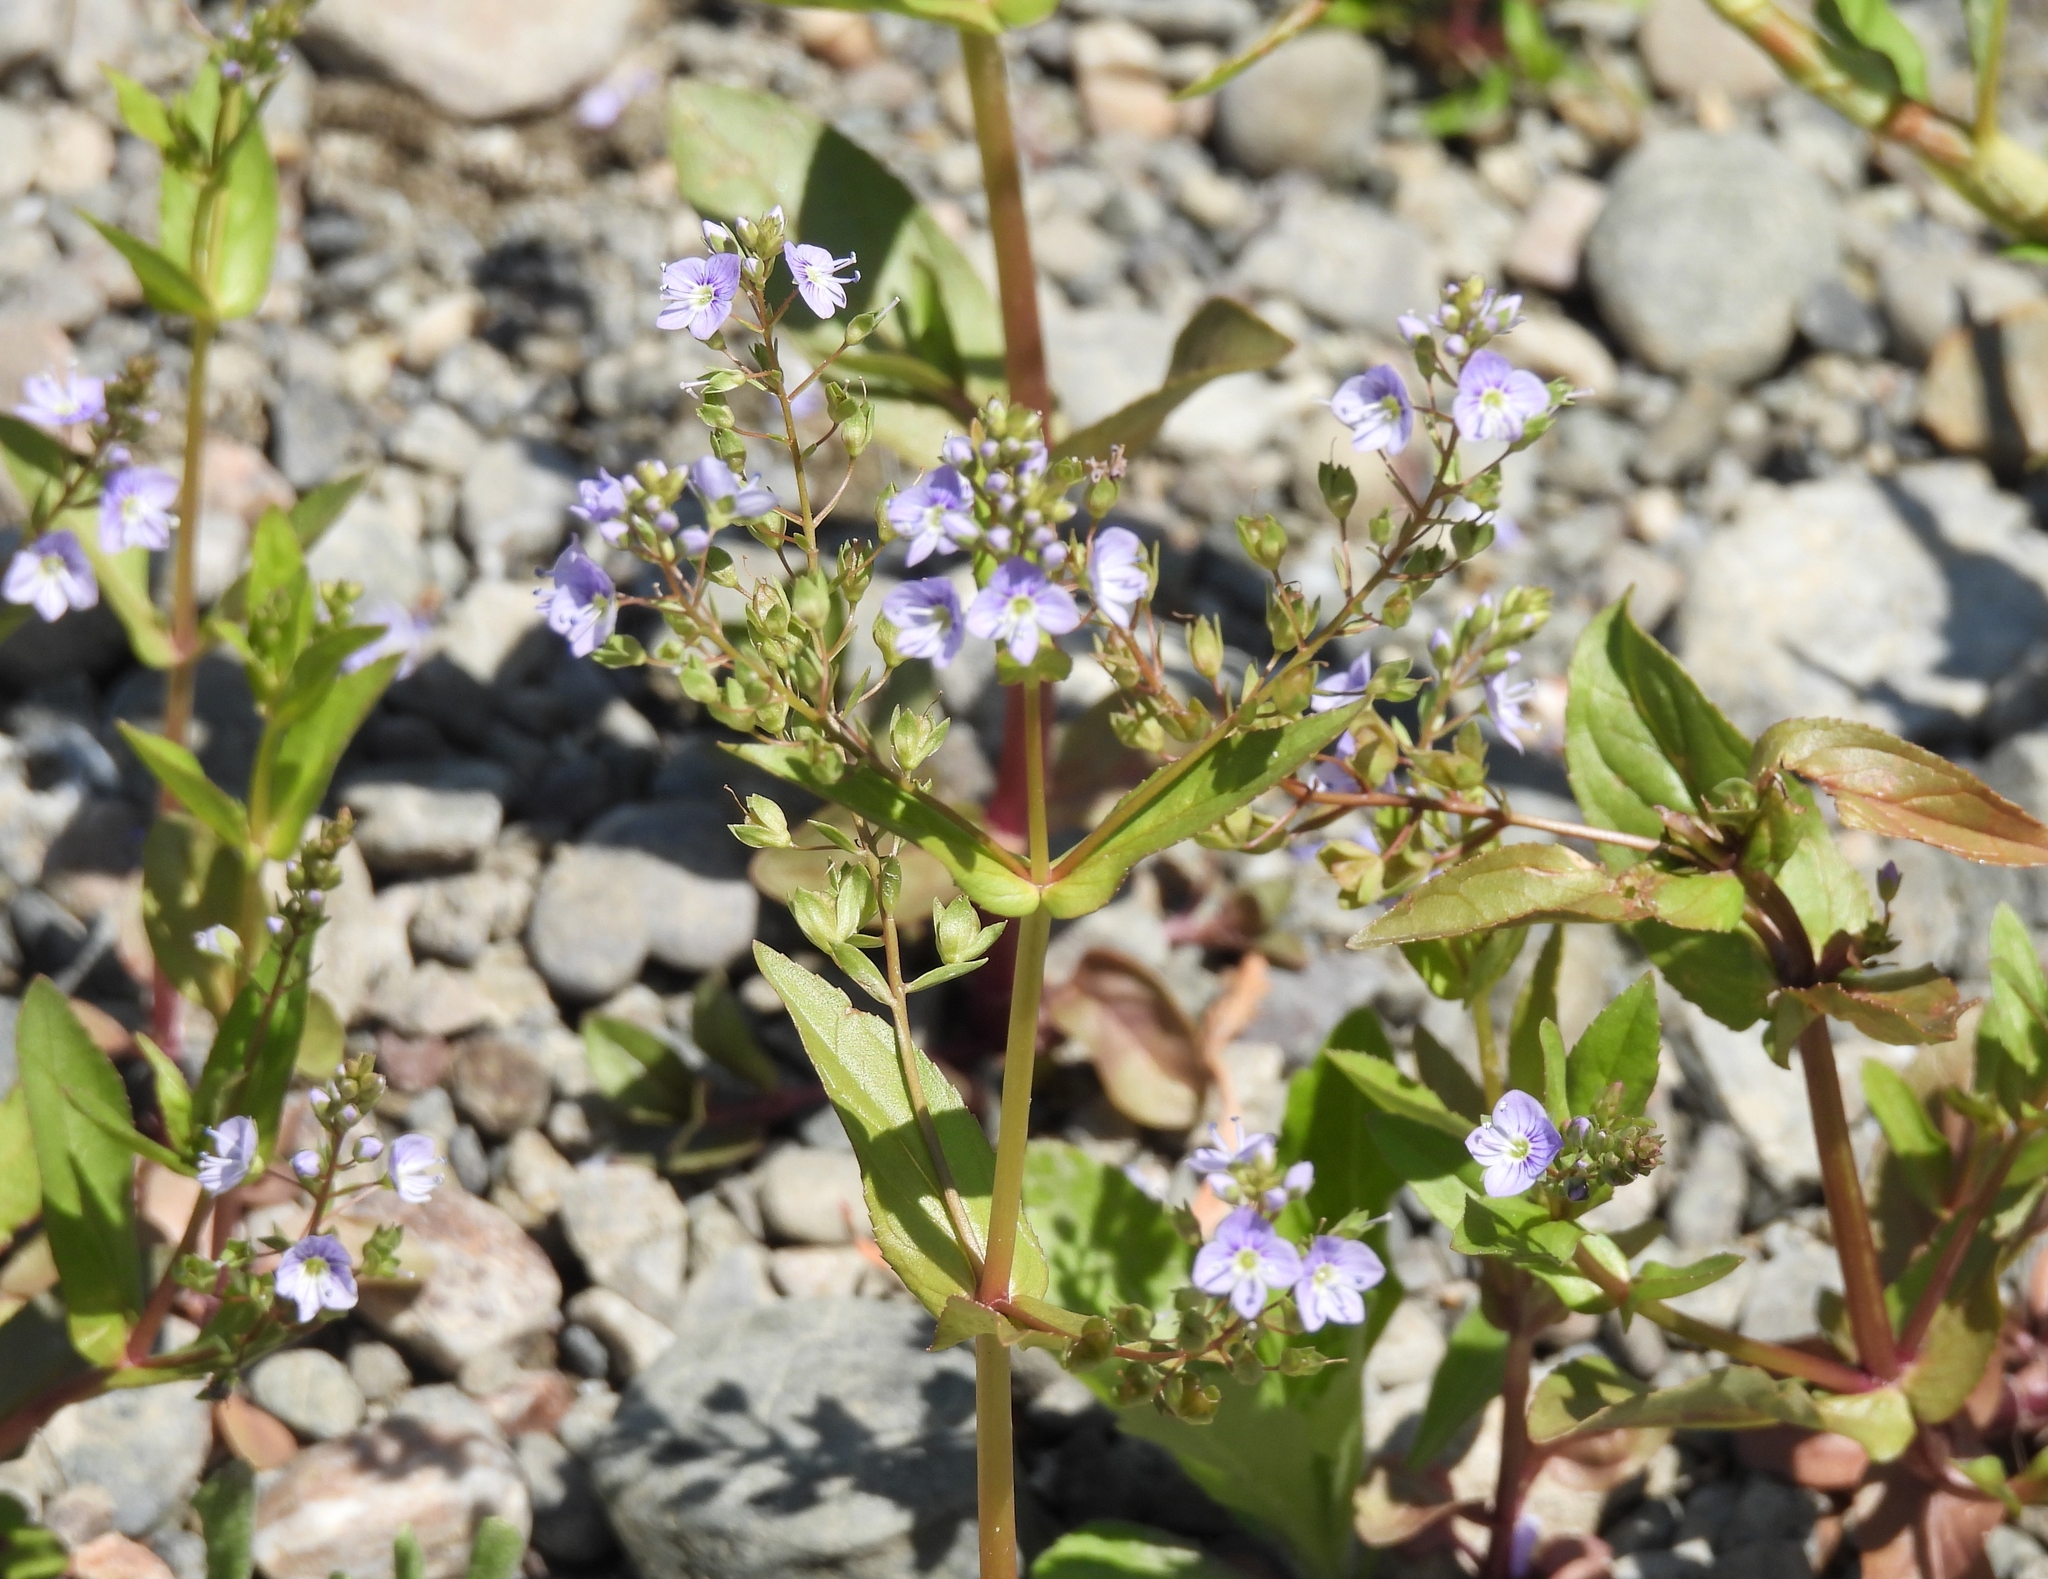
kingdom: Plantae
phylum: Tracheophyta
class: Magnoliopsida
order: Lamiales
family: Plantaginaceae
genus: Veronica
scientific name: Veronica anagallis-aquatica
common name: Water speedwell
